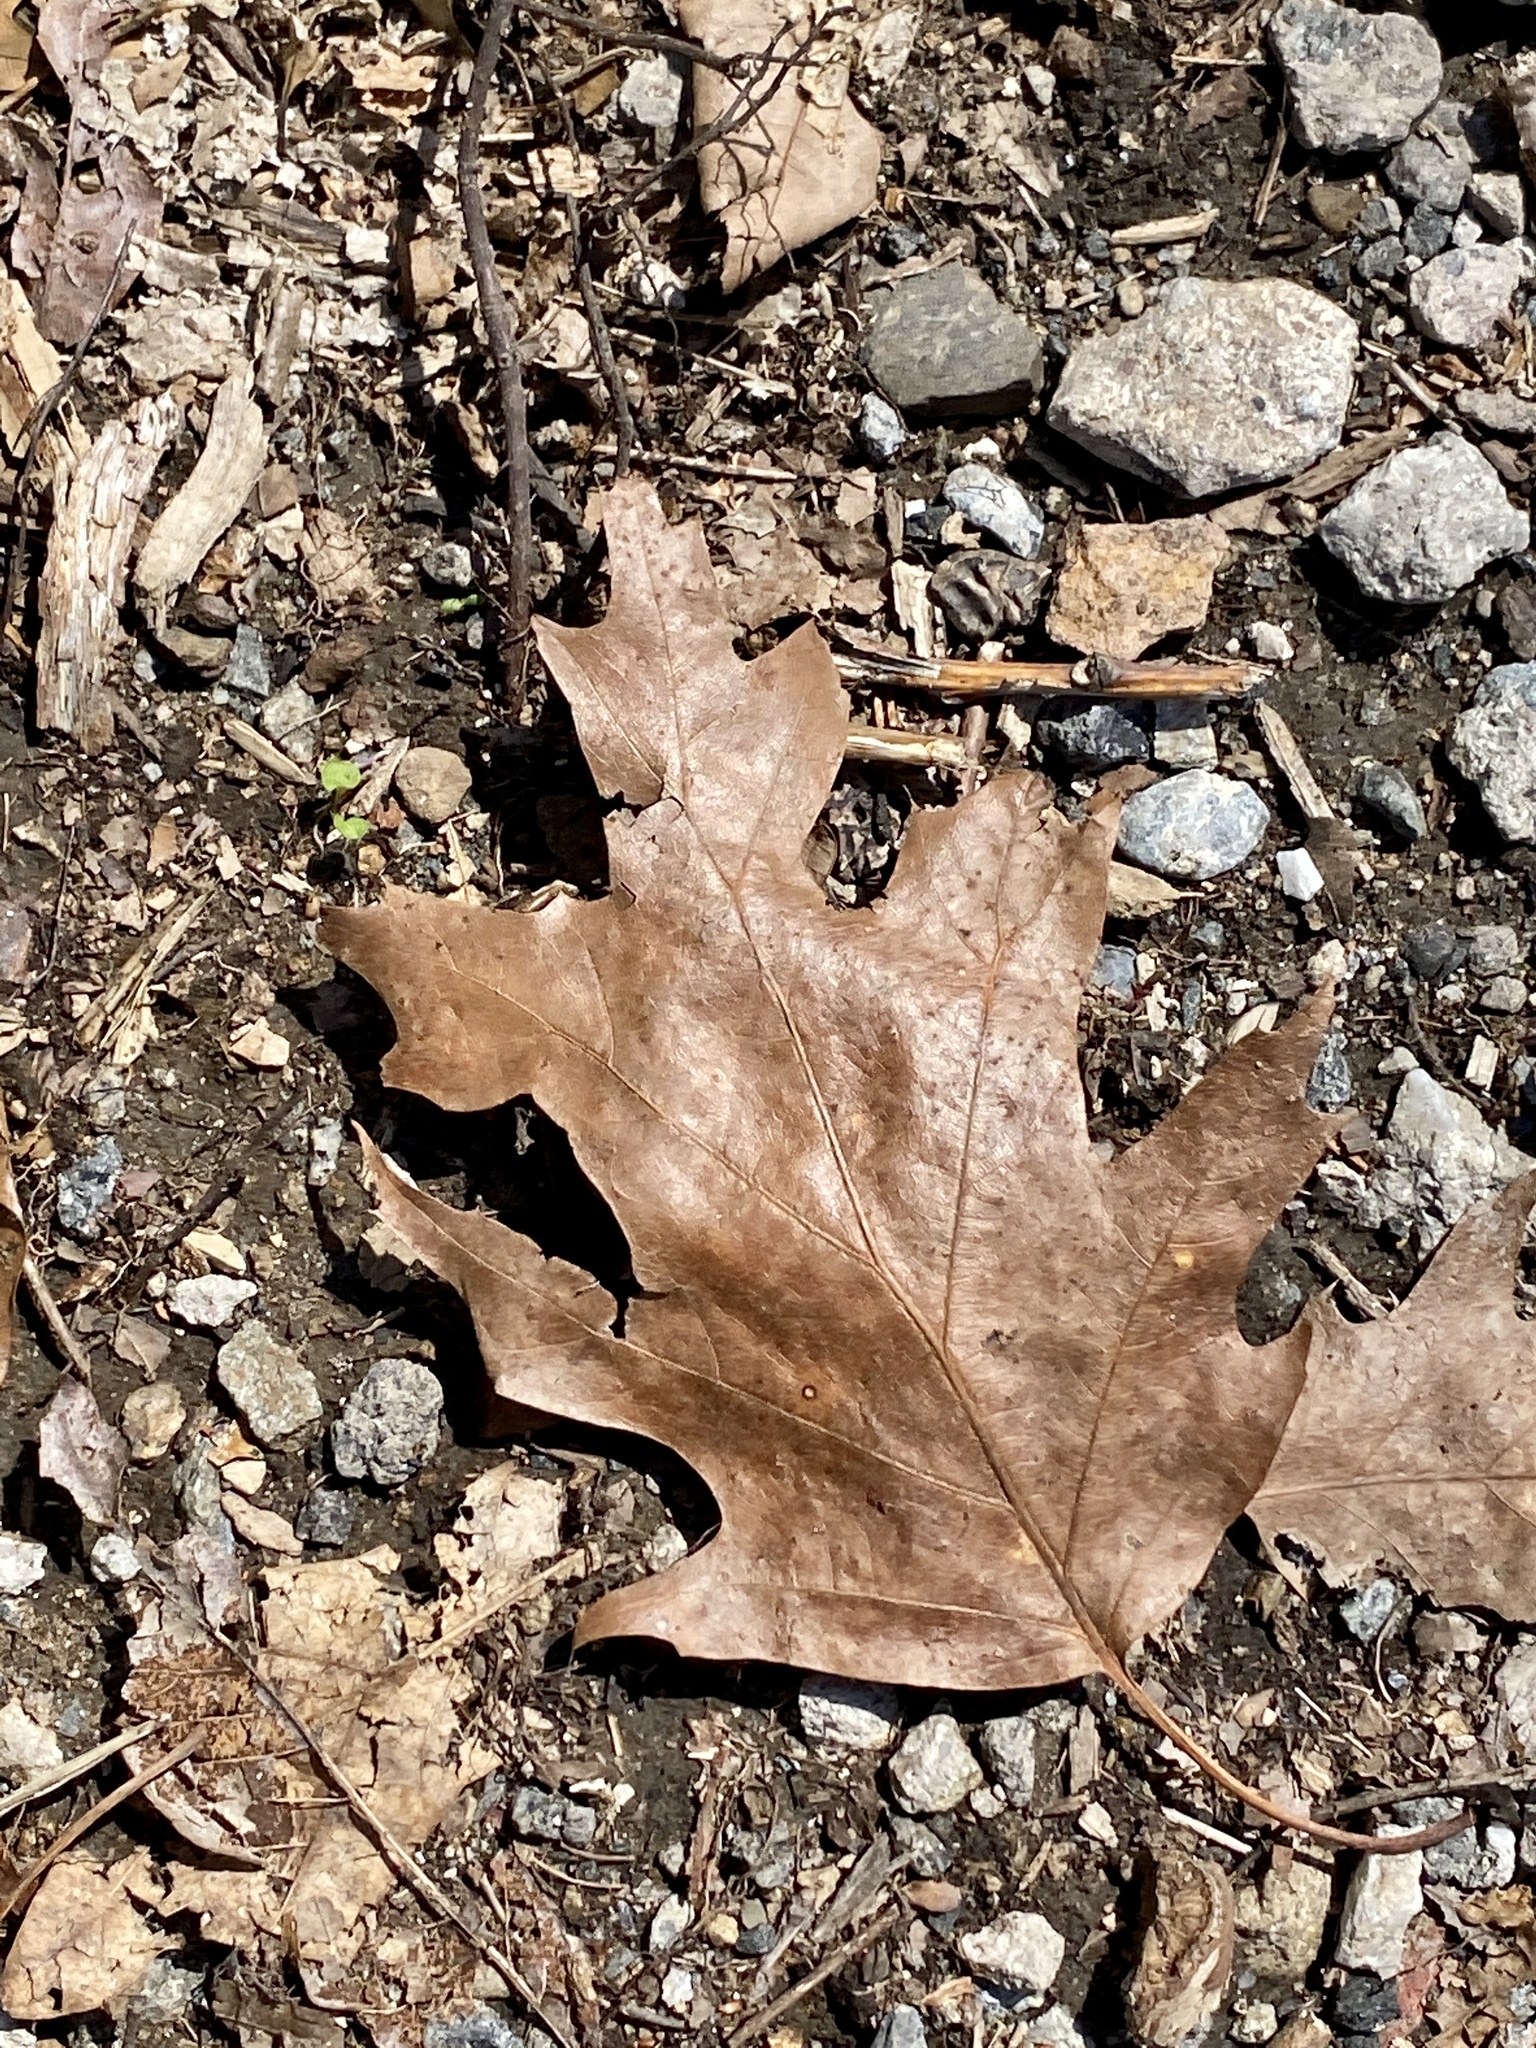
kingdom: Plantae
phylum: Tracheophyta
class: Magnoliopsida
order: Fagales
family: Fagaceae
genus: Quercus
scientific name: Quercus rubra
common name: Red oak
